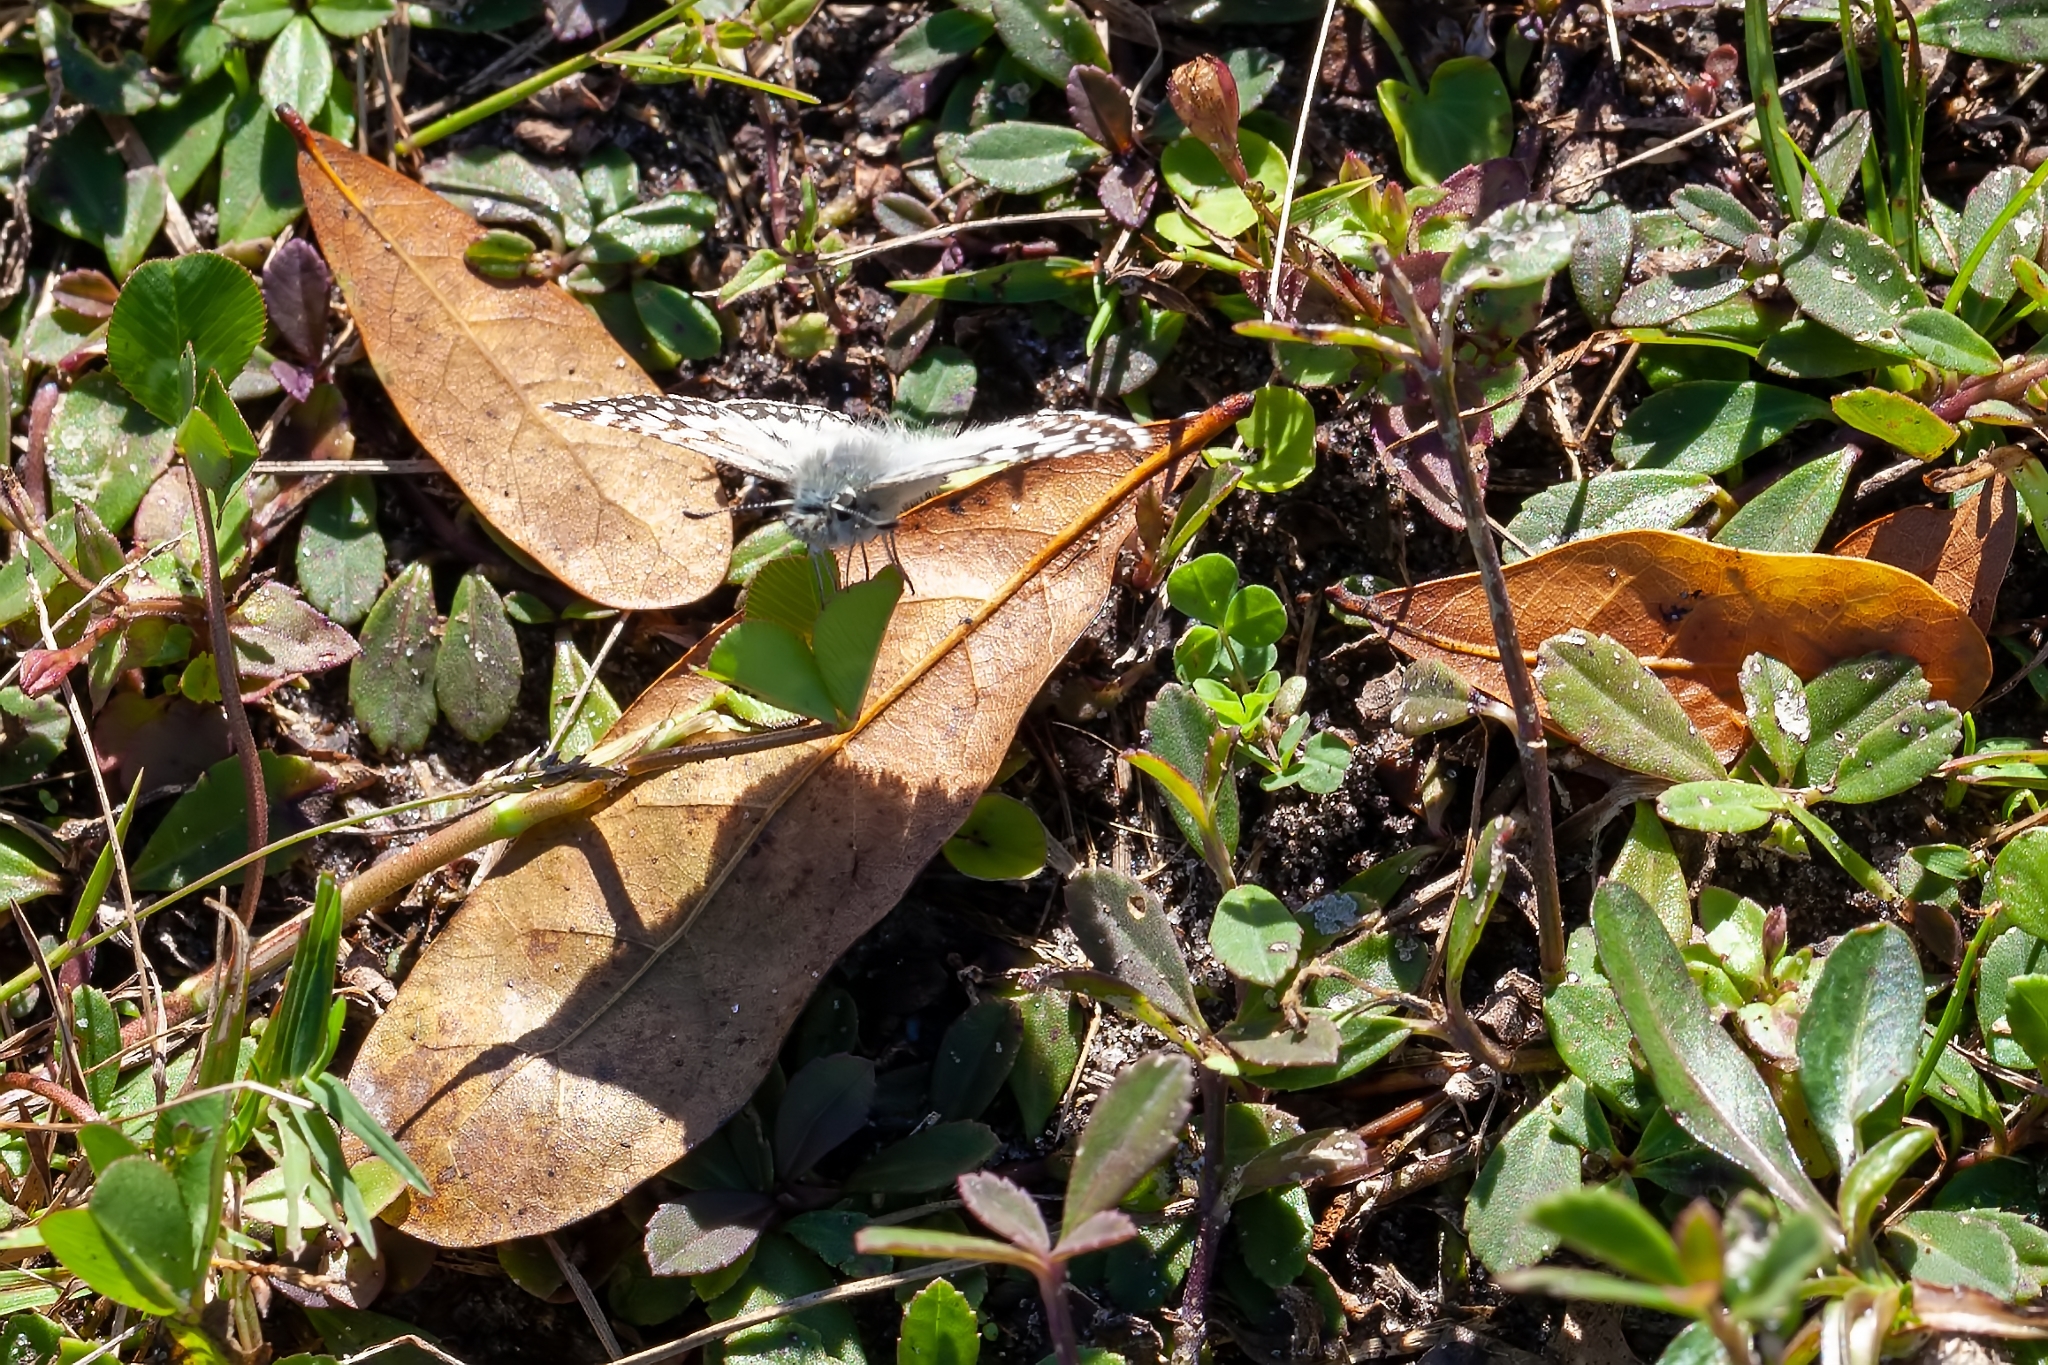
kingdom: Animalia
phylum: Arthropoda
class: Insecta
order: Lepidoptera
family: Hesperiidae
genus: Burnsius
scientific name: Burnsius albezens
